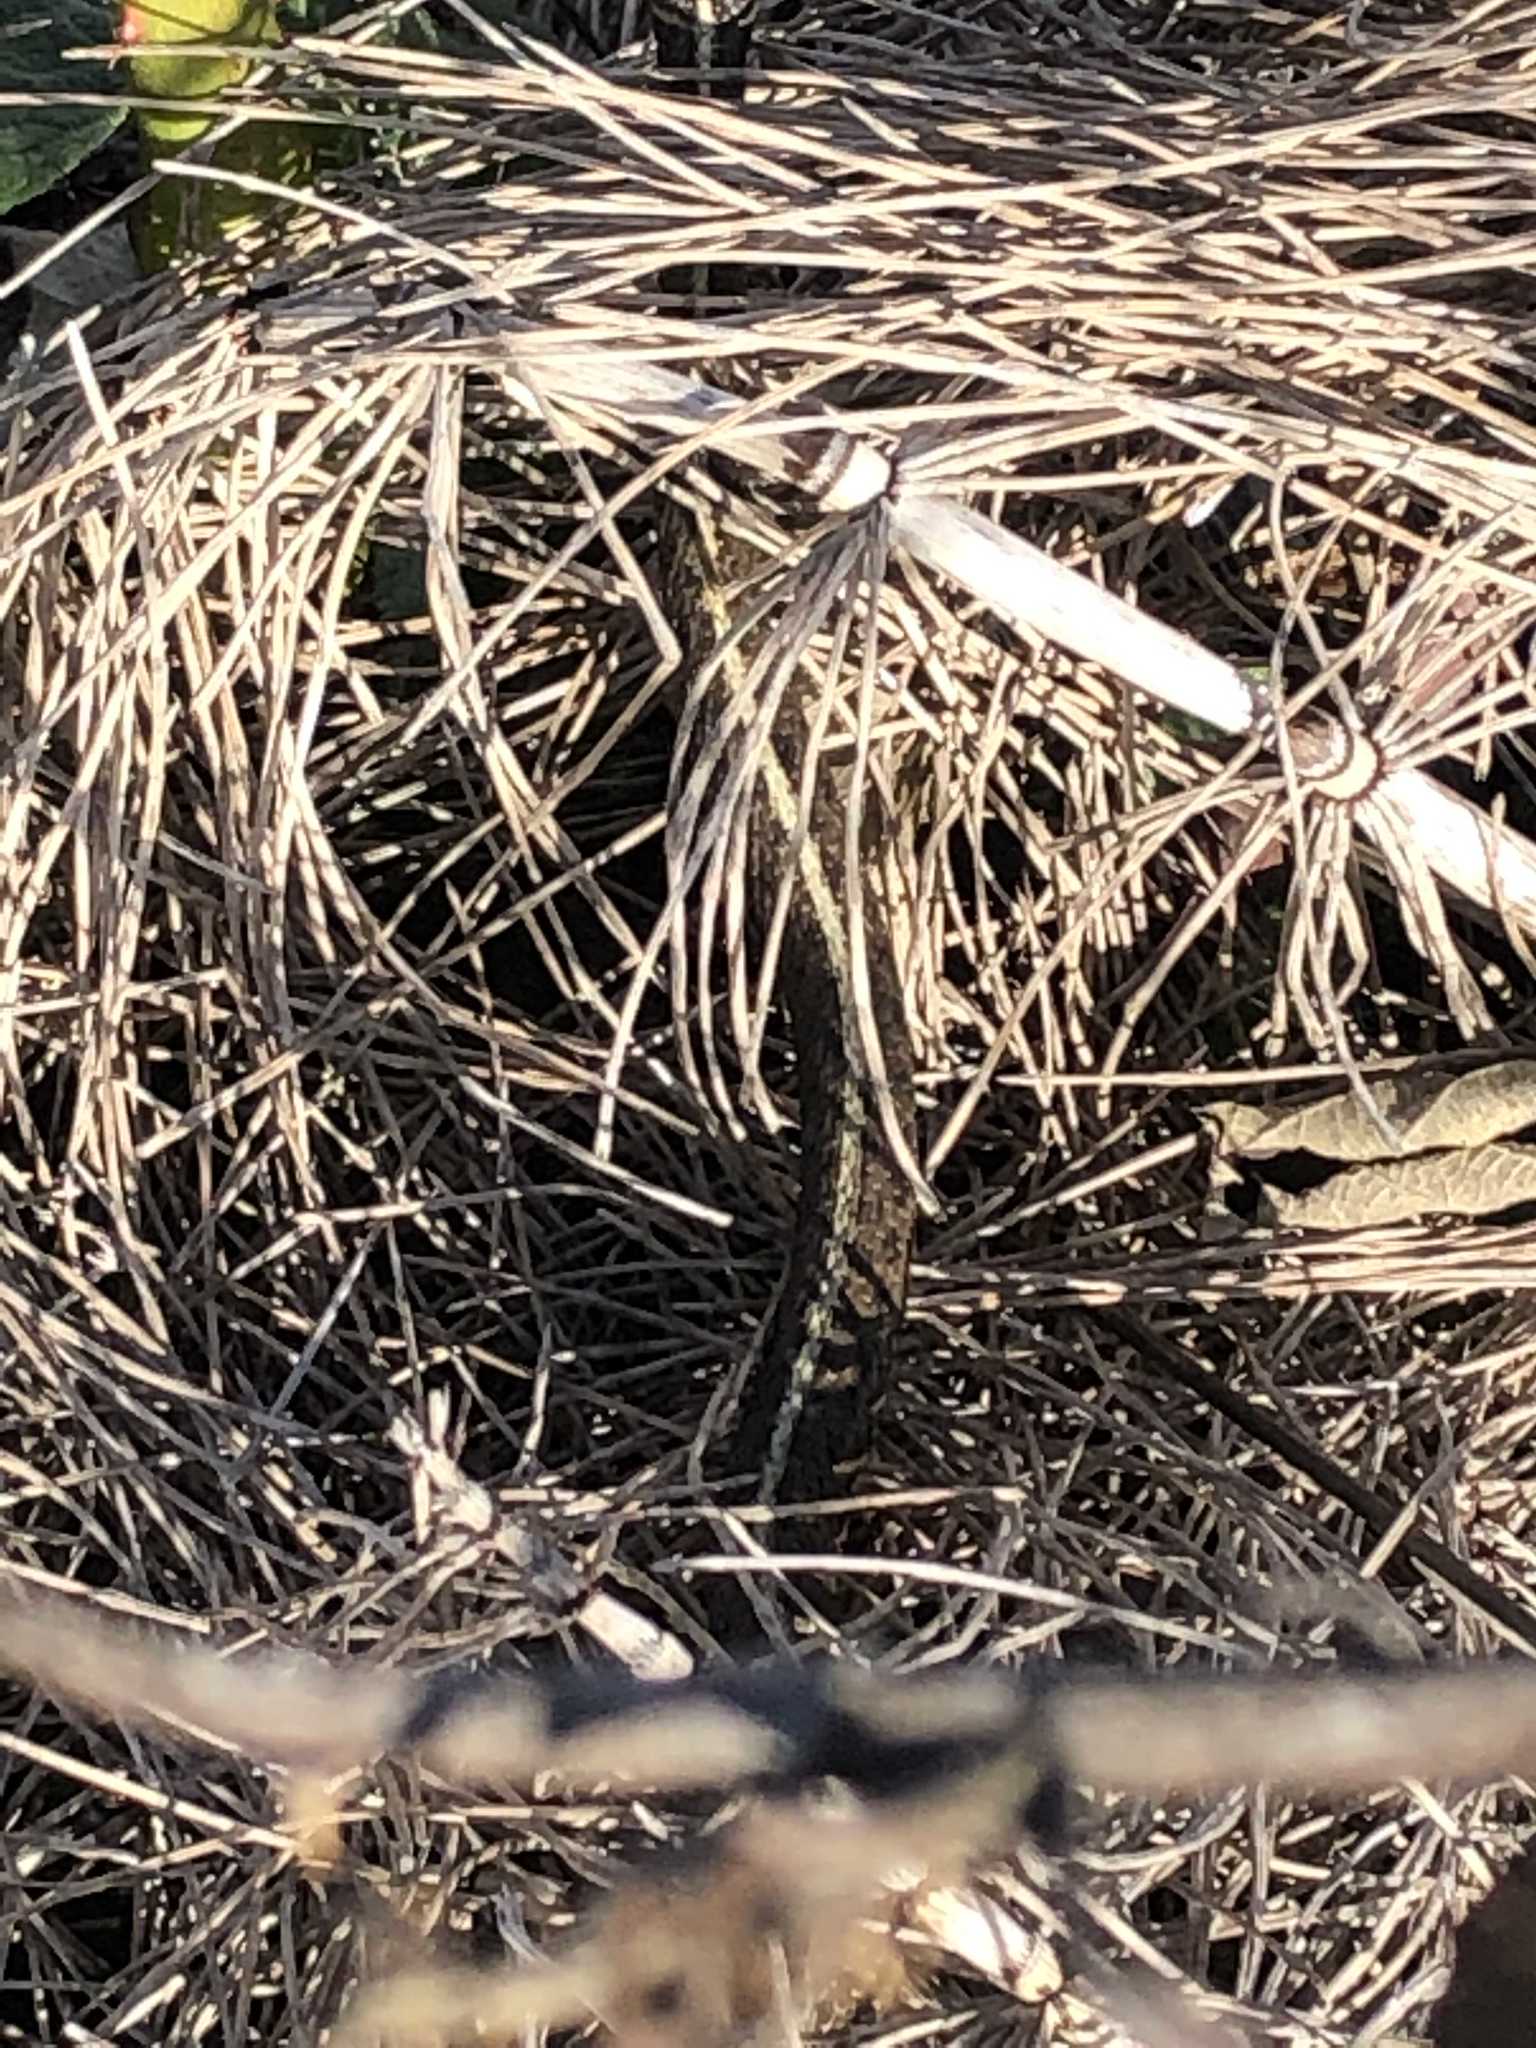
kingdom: Animalia
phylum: Chordata
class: Squamata
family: Colubridae
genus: Thamnophis
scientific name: Thamnophis ordinoides
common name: Northwestern garter snake
